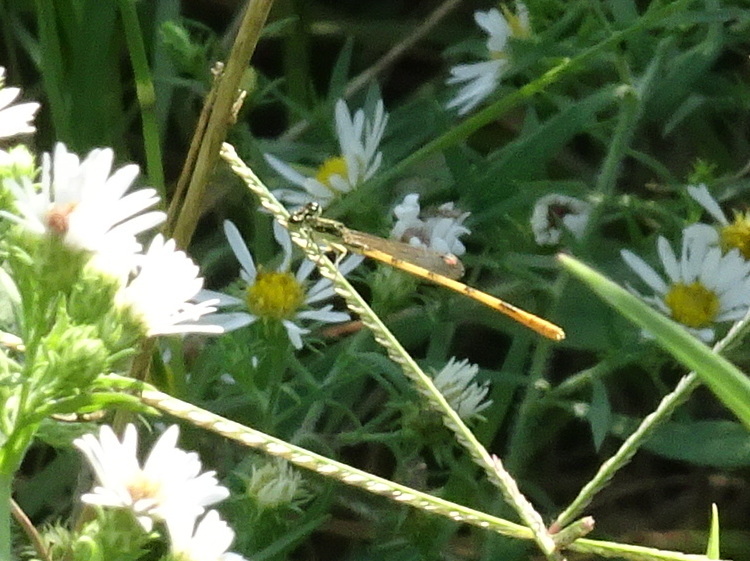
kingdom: Animalia
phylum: Arthropoda
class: Insecta
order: Odonata
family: Coenagrionidae
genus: Ischnura
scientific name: Ischnura hastata
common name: Citrine forktail
